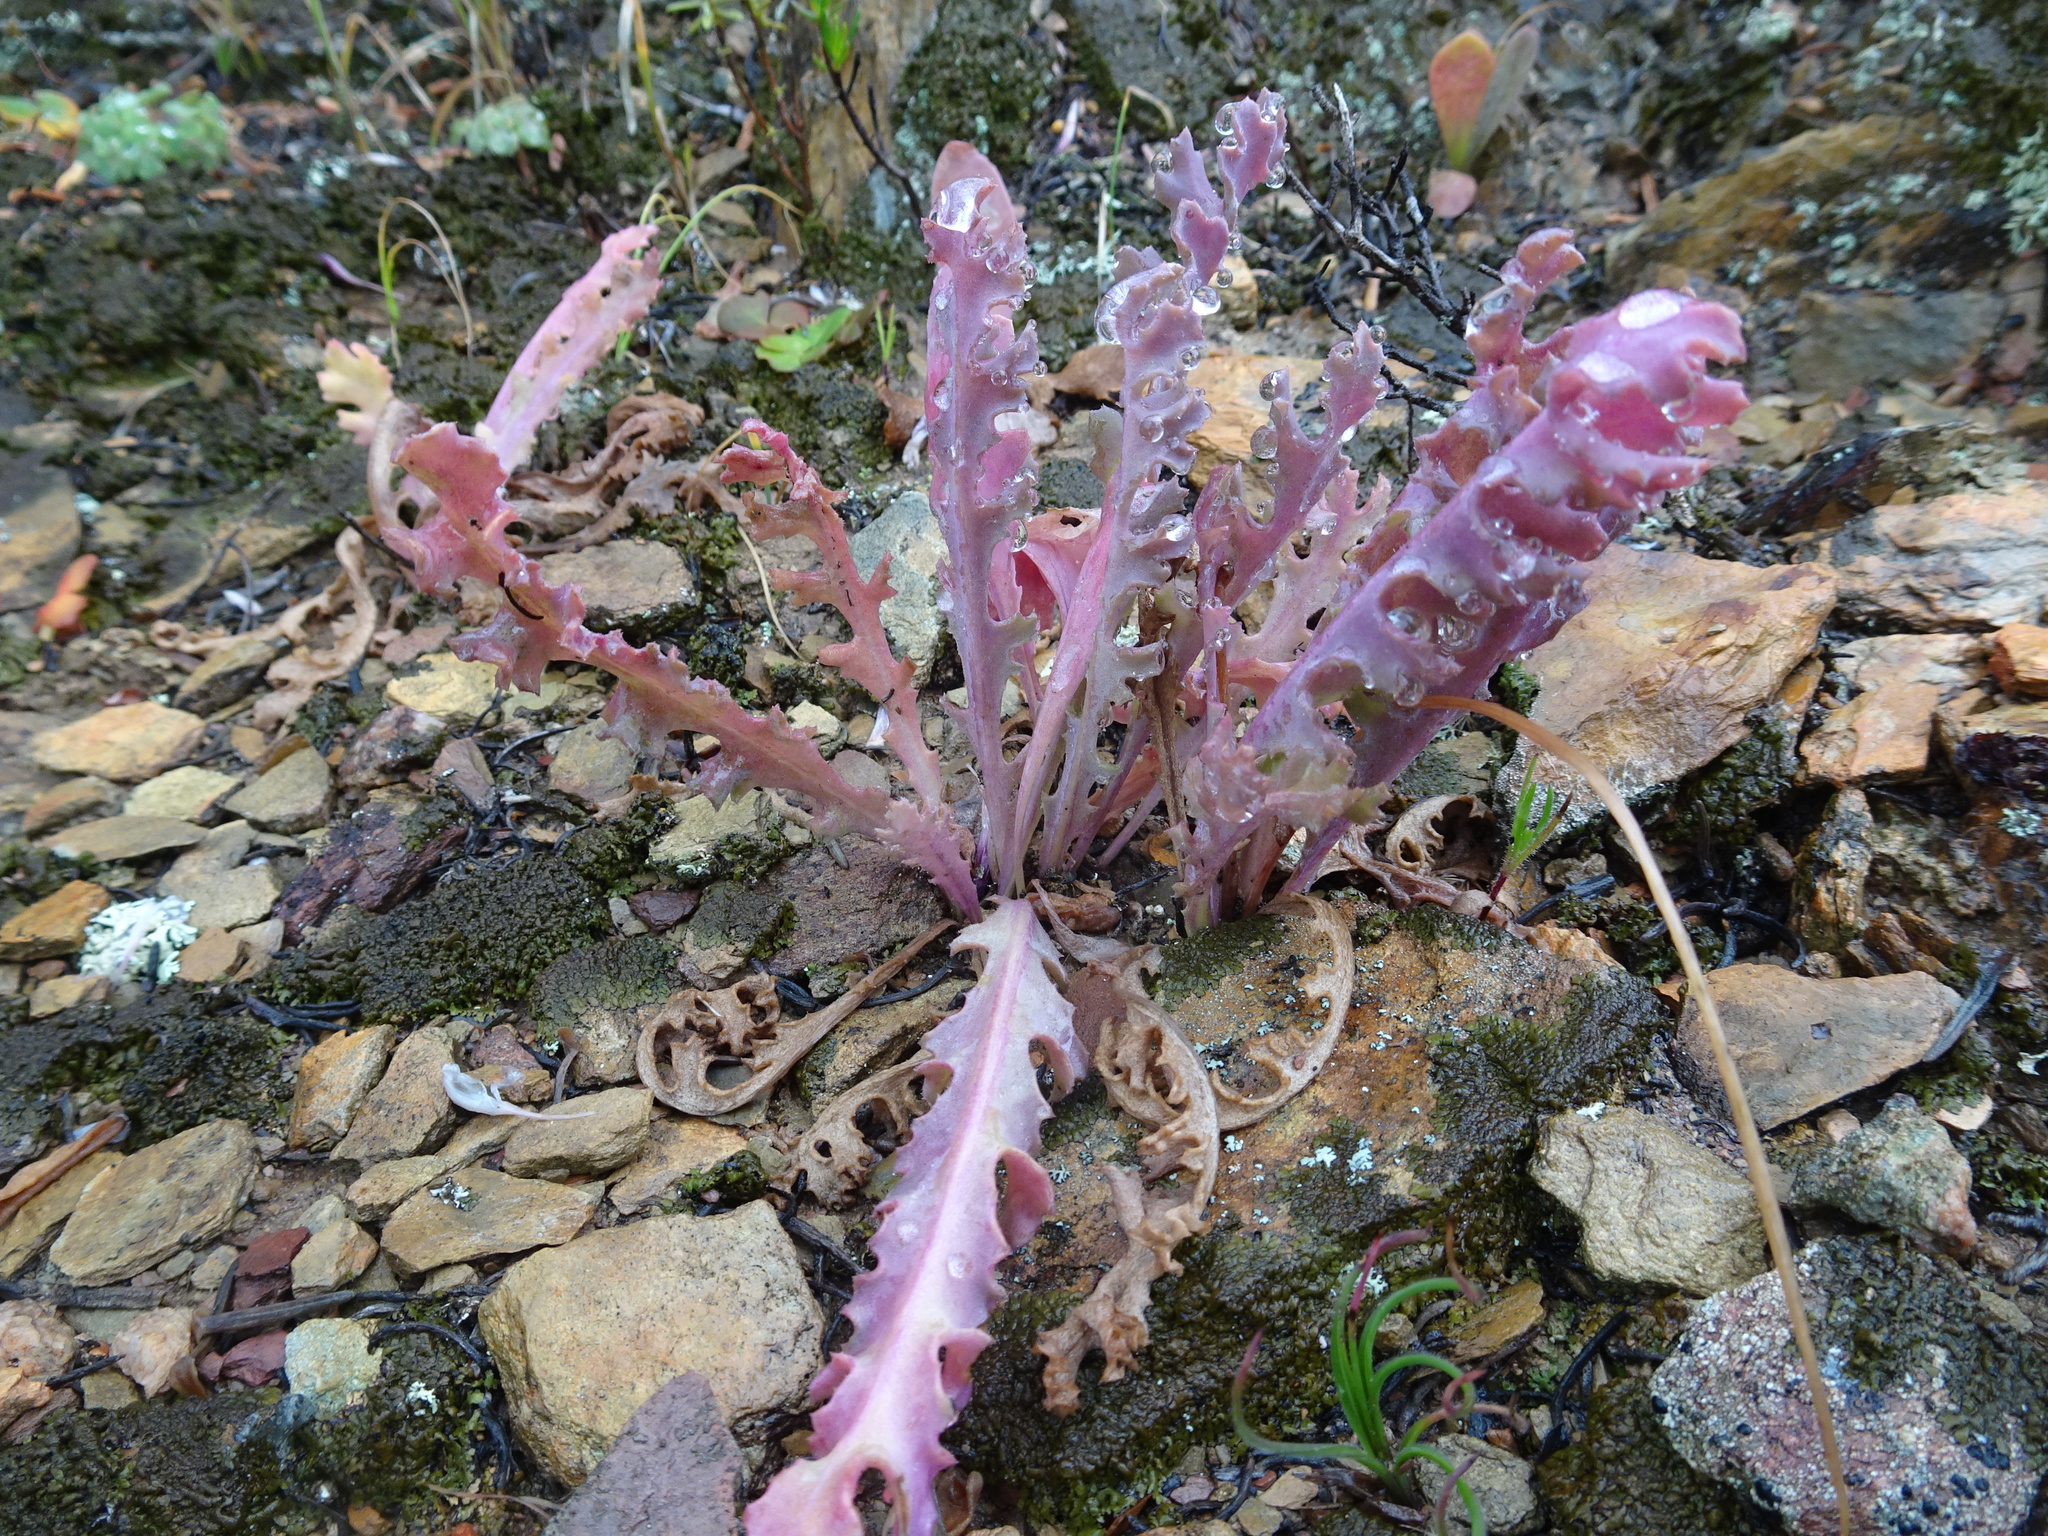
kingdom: Plantae
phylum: Tracheophyta
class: Magnoliopsida
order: Asterales
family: Asteraceae
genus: Othonna
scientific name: Othonna auriculifolia
